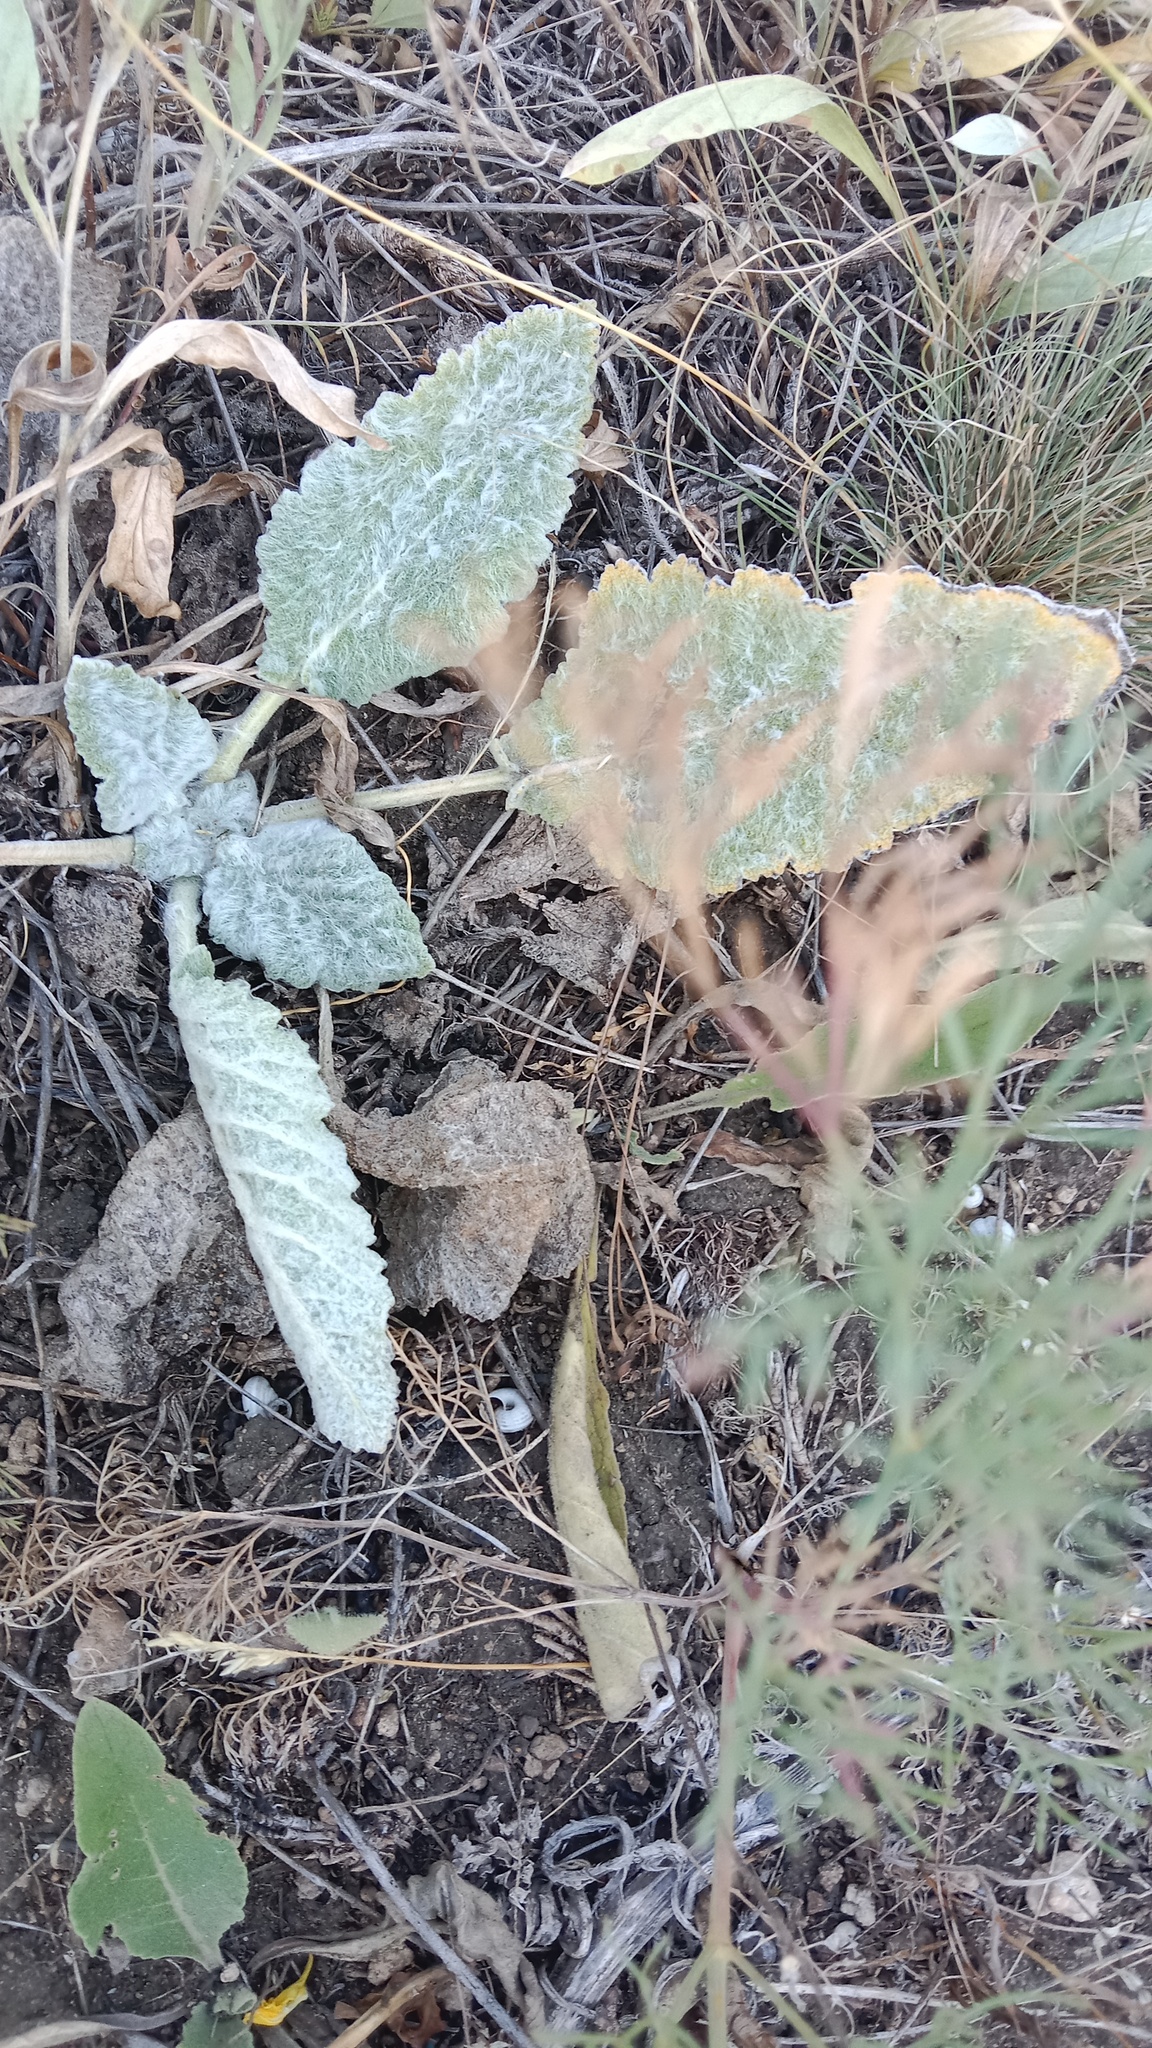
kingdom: Plantae
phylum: Tracheophyta
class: Magnoliopsida
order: Lamiales
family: Lamiaceae
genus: Salvia
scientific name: Salvia aethiopis
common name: Mediterranean sage
